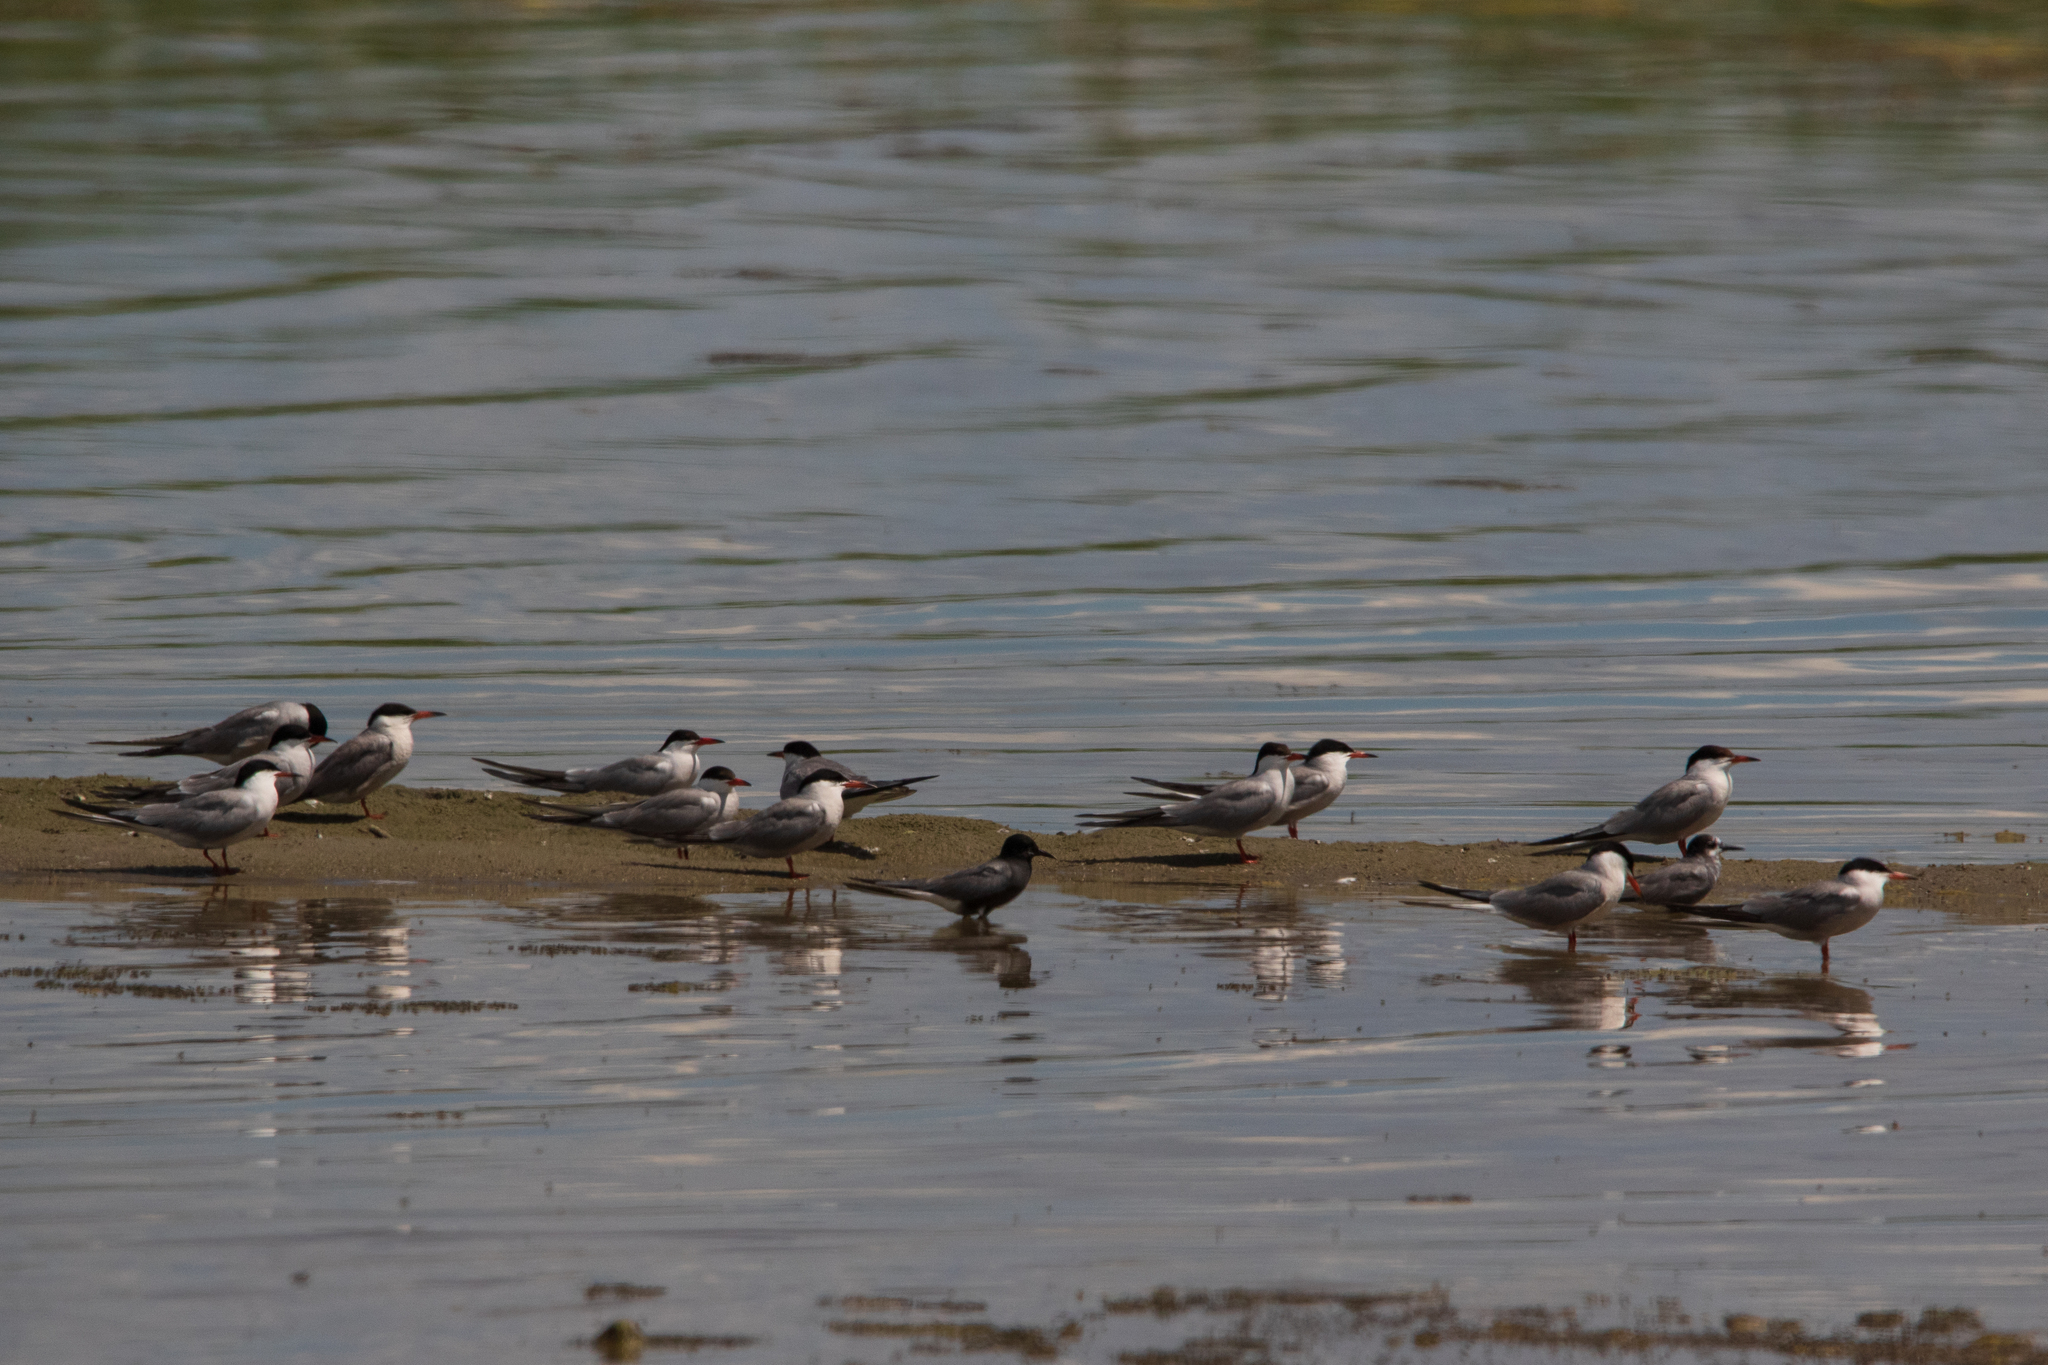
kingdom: Animalia
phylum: Chordata
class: Aves
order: Charadriiformes
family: Laridae
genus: Chlidonias
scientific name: Chlidonias niger
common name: Black tern
